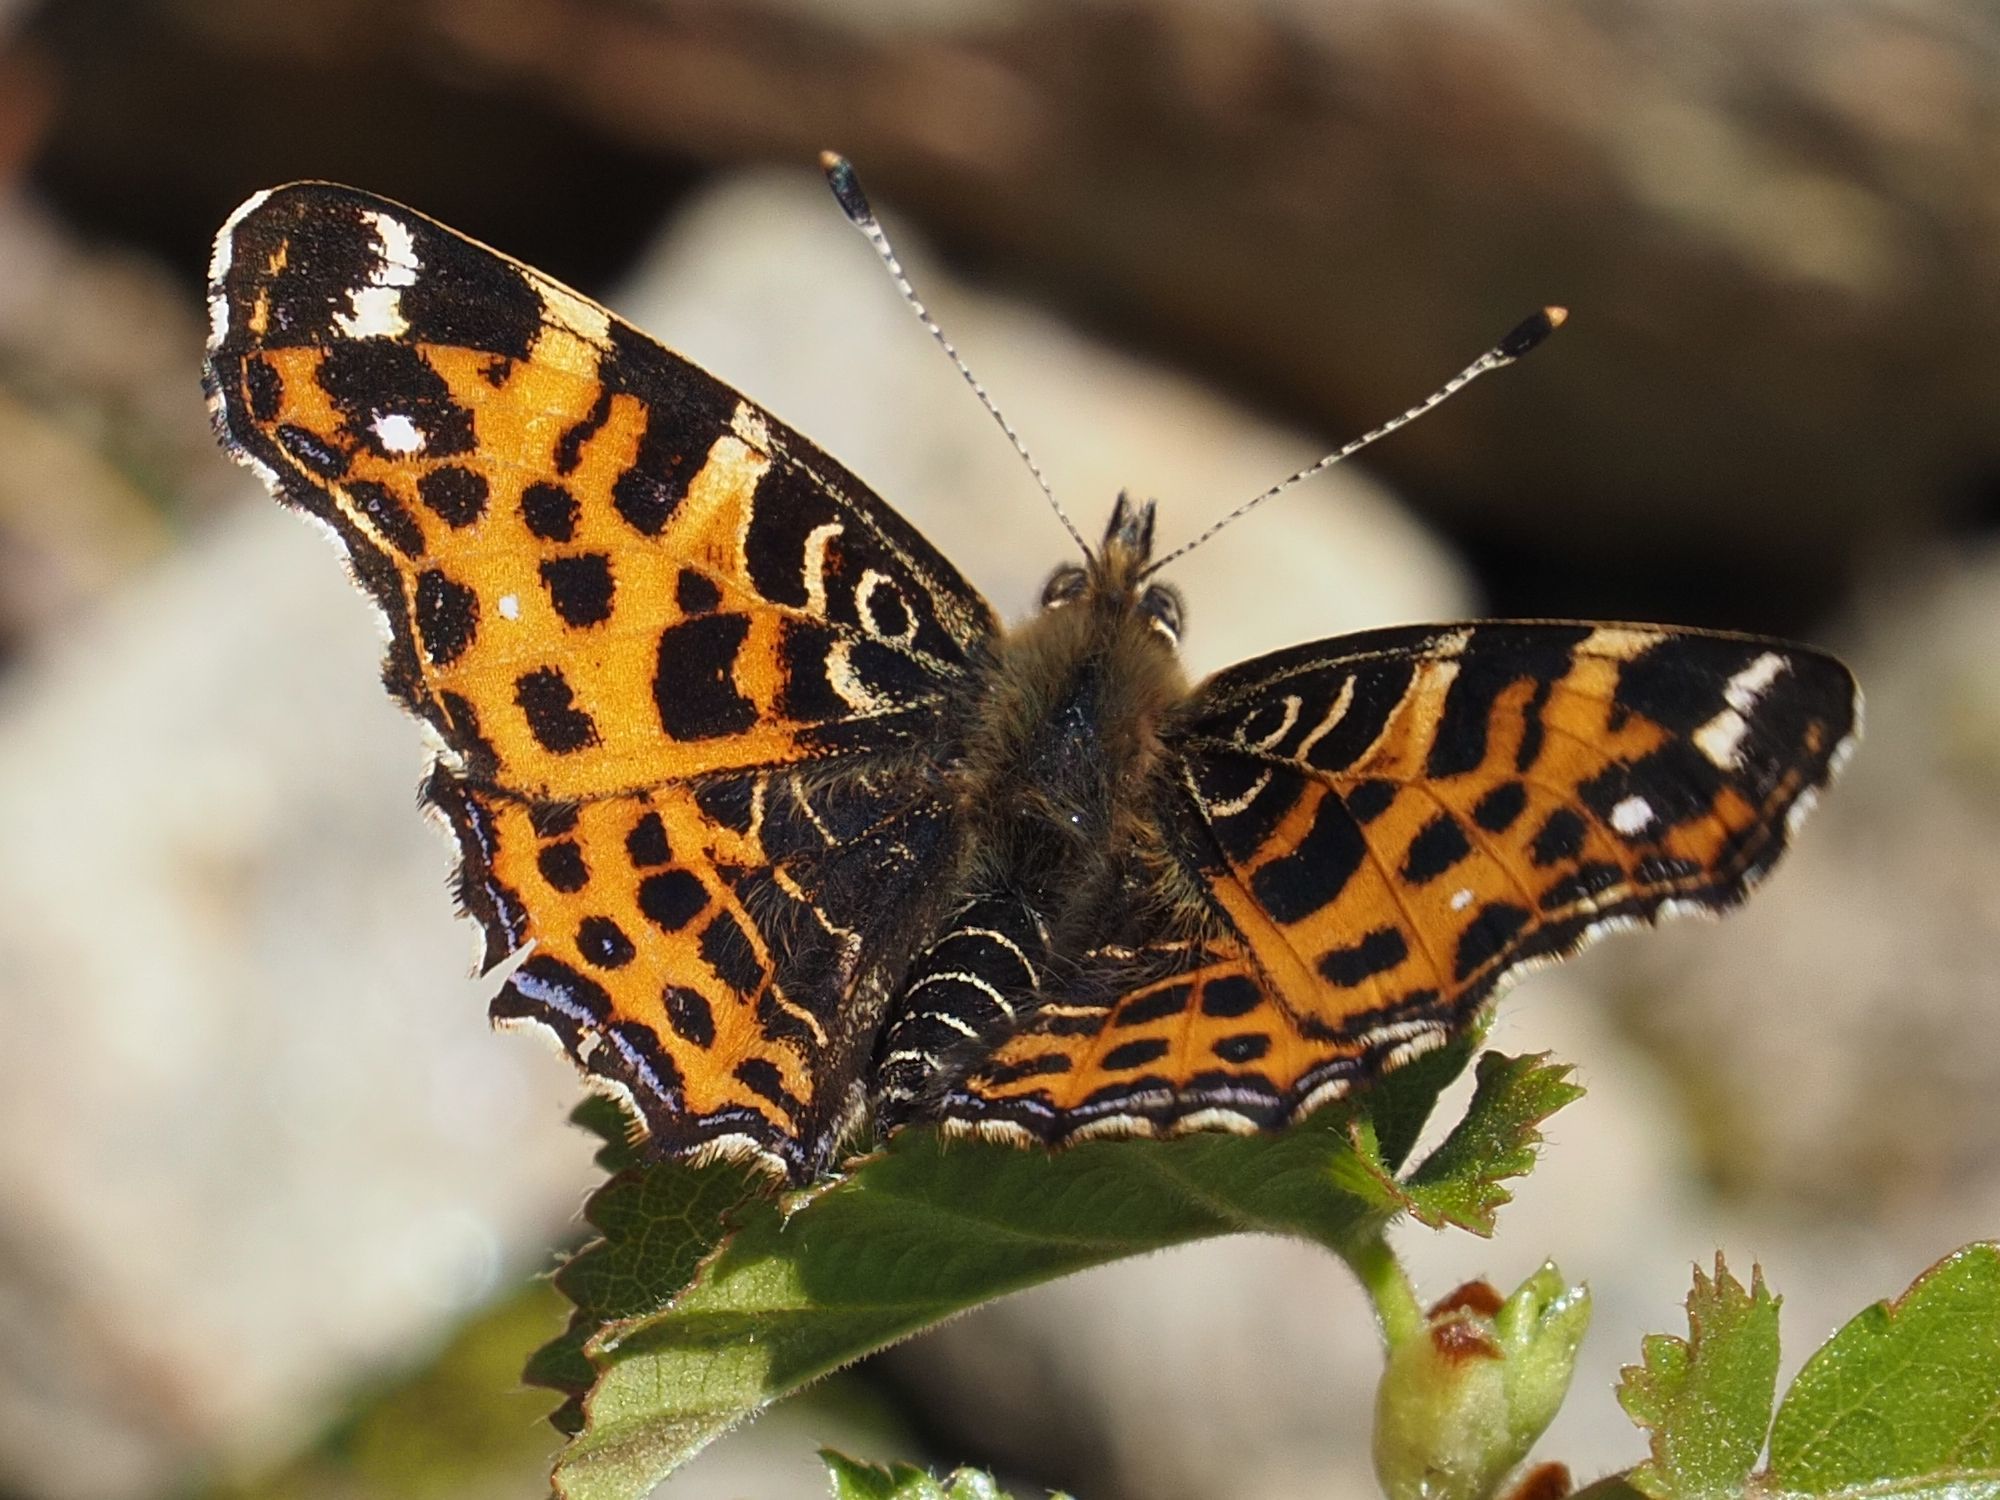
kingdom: Animalia
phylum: Arthropoda
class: Insecta
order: Lepidoptera
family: Nymphalidae
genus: Araschnia
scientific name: Araschnia levana
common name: Map butterfly
